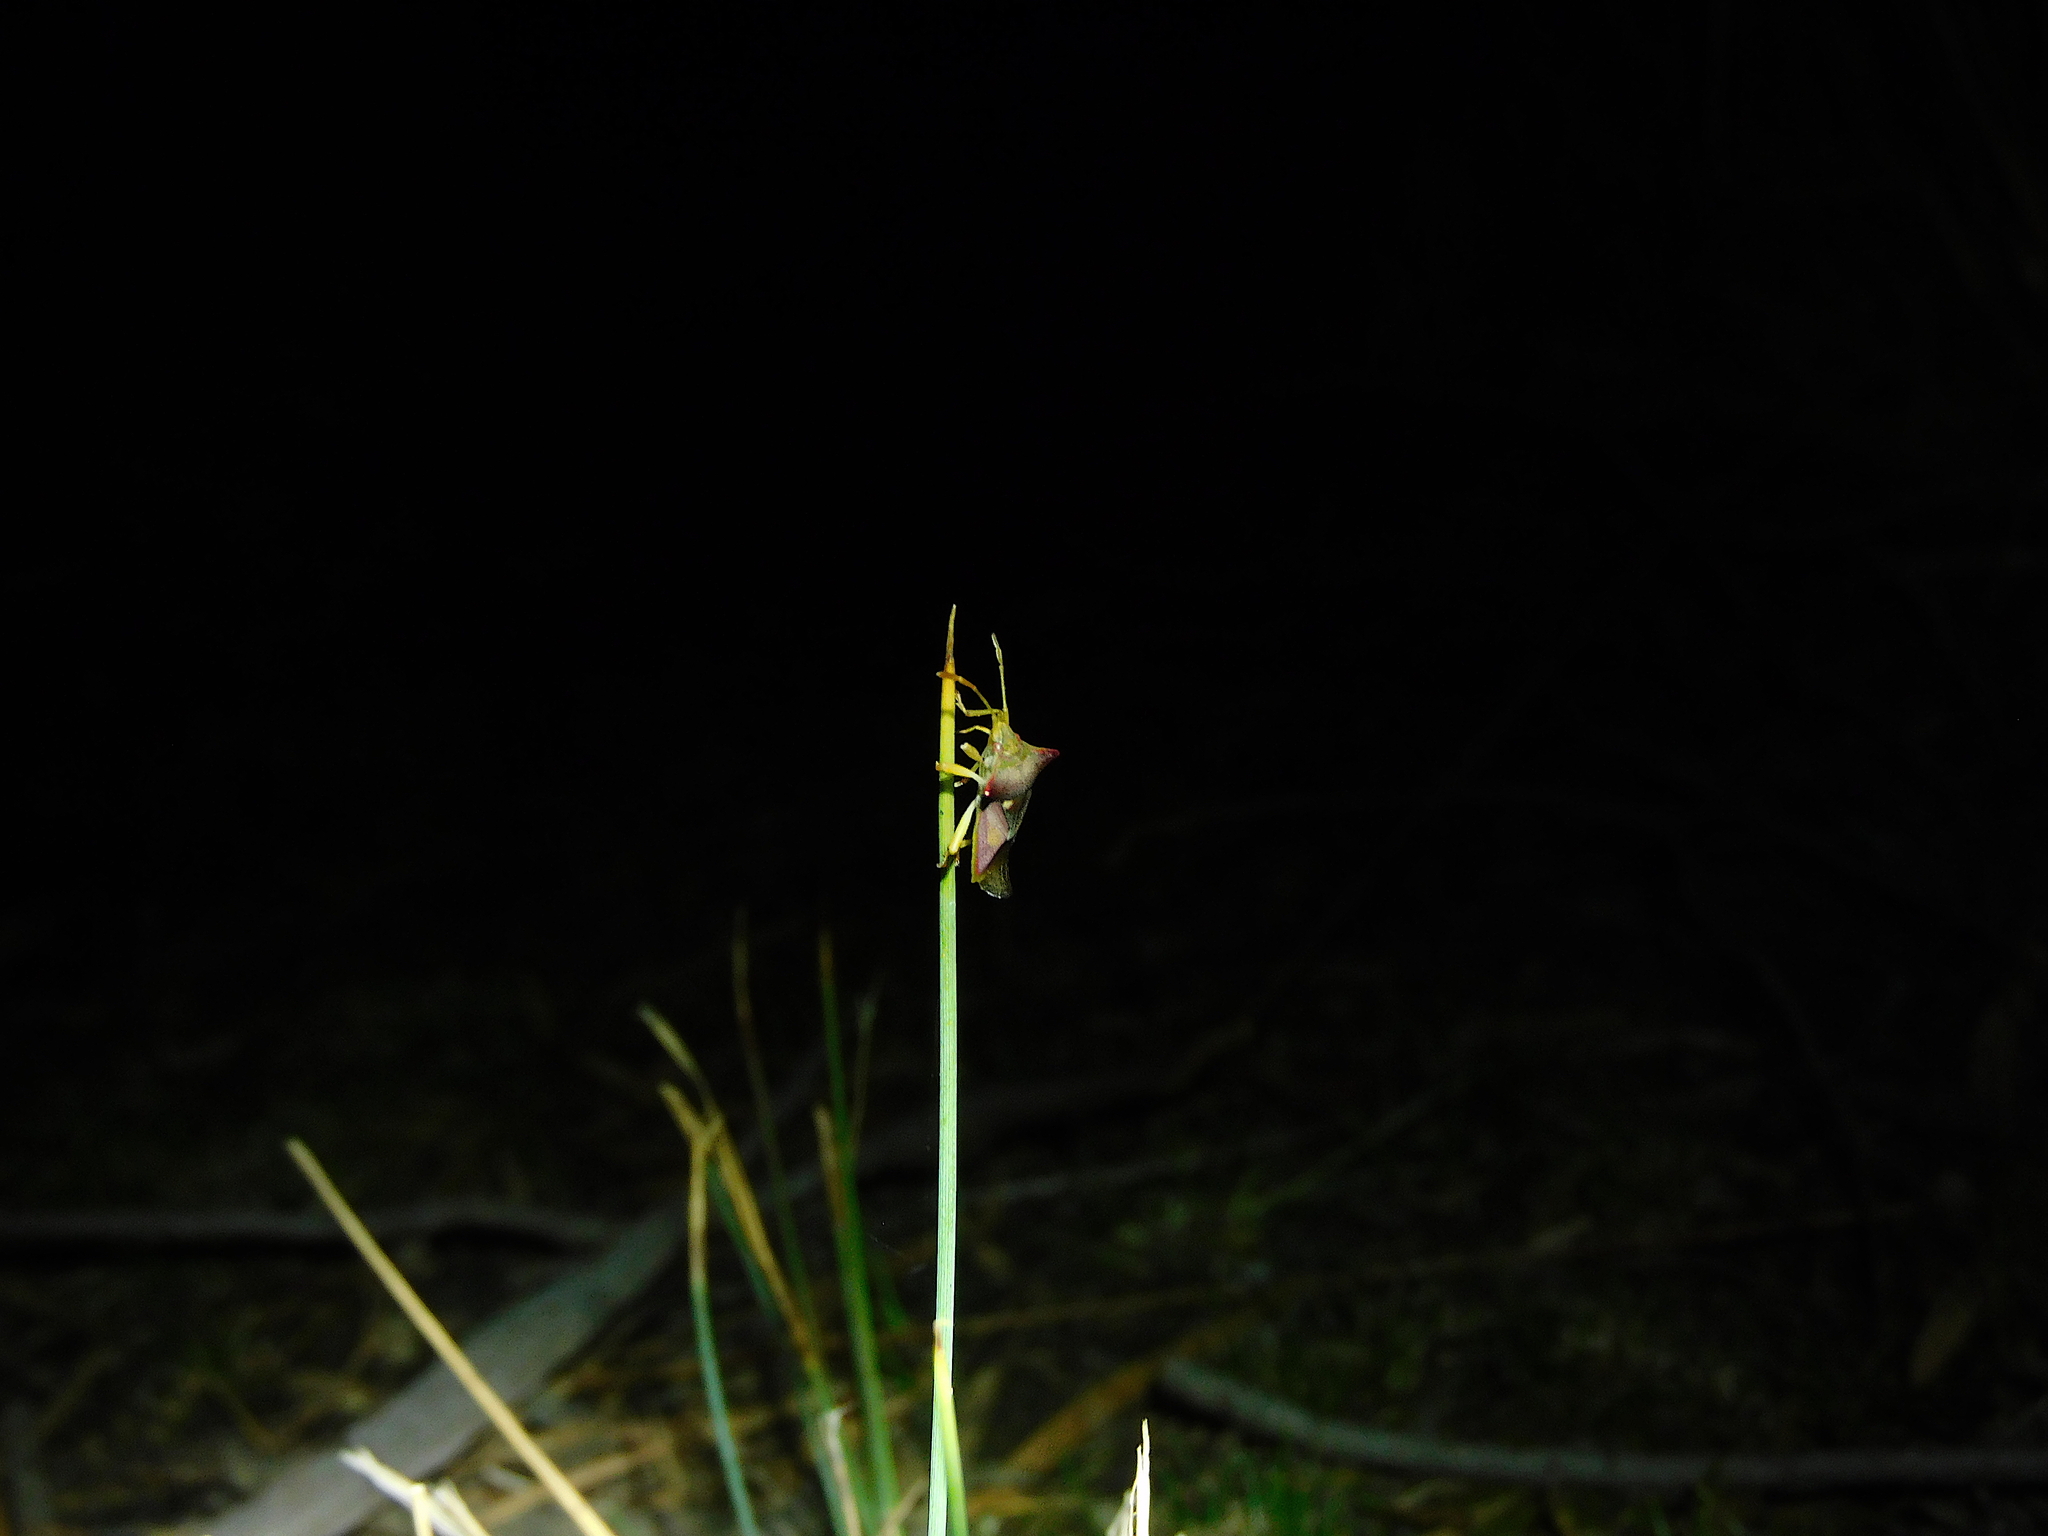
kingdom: Animalia
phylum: Arthropoda
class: Insecta
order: Hemiptera
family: Acanthosomatidae
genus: Hiarchas
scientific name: Hiarchas angularis
